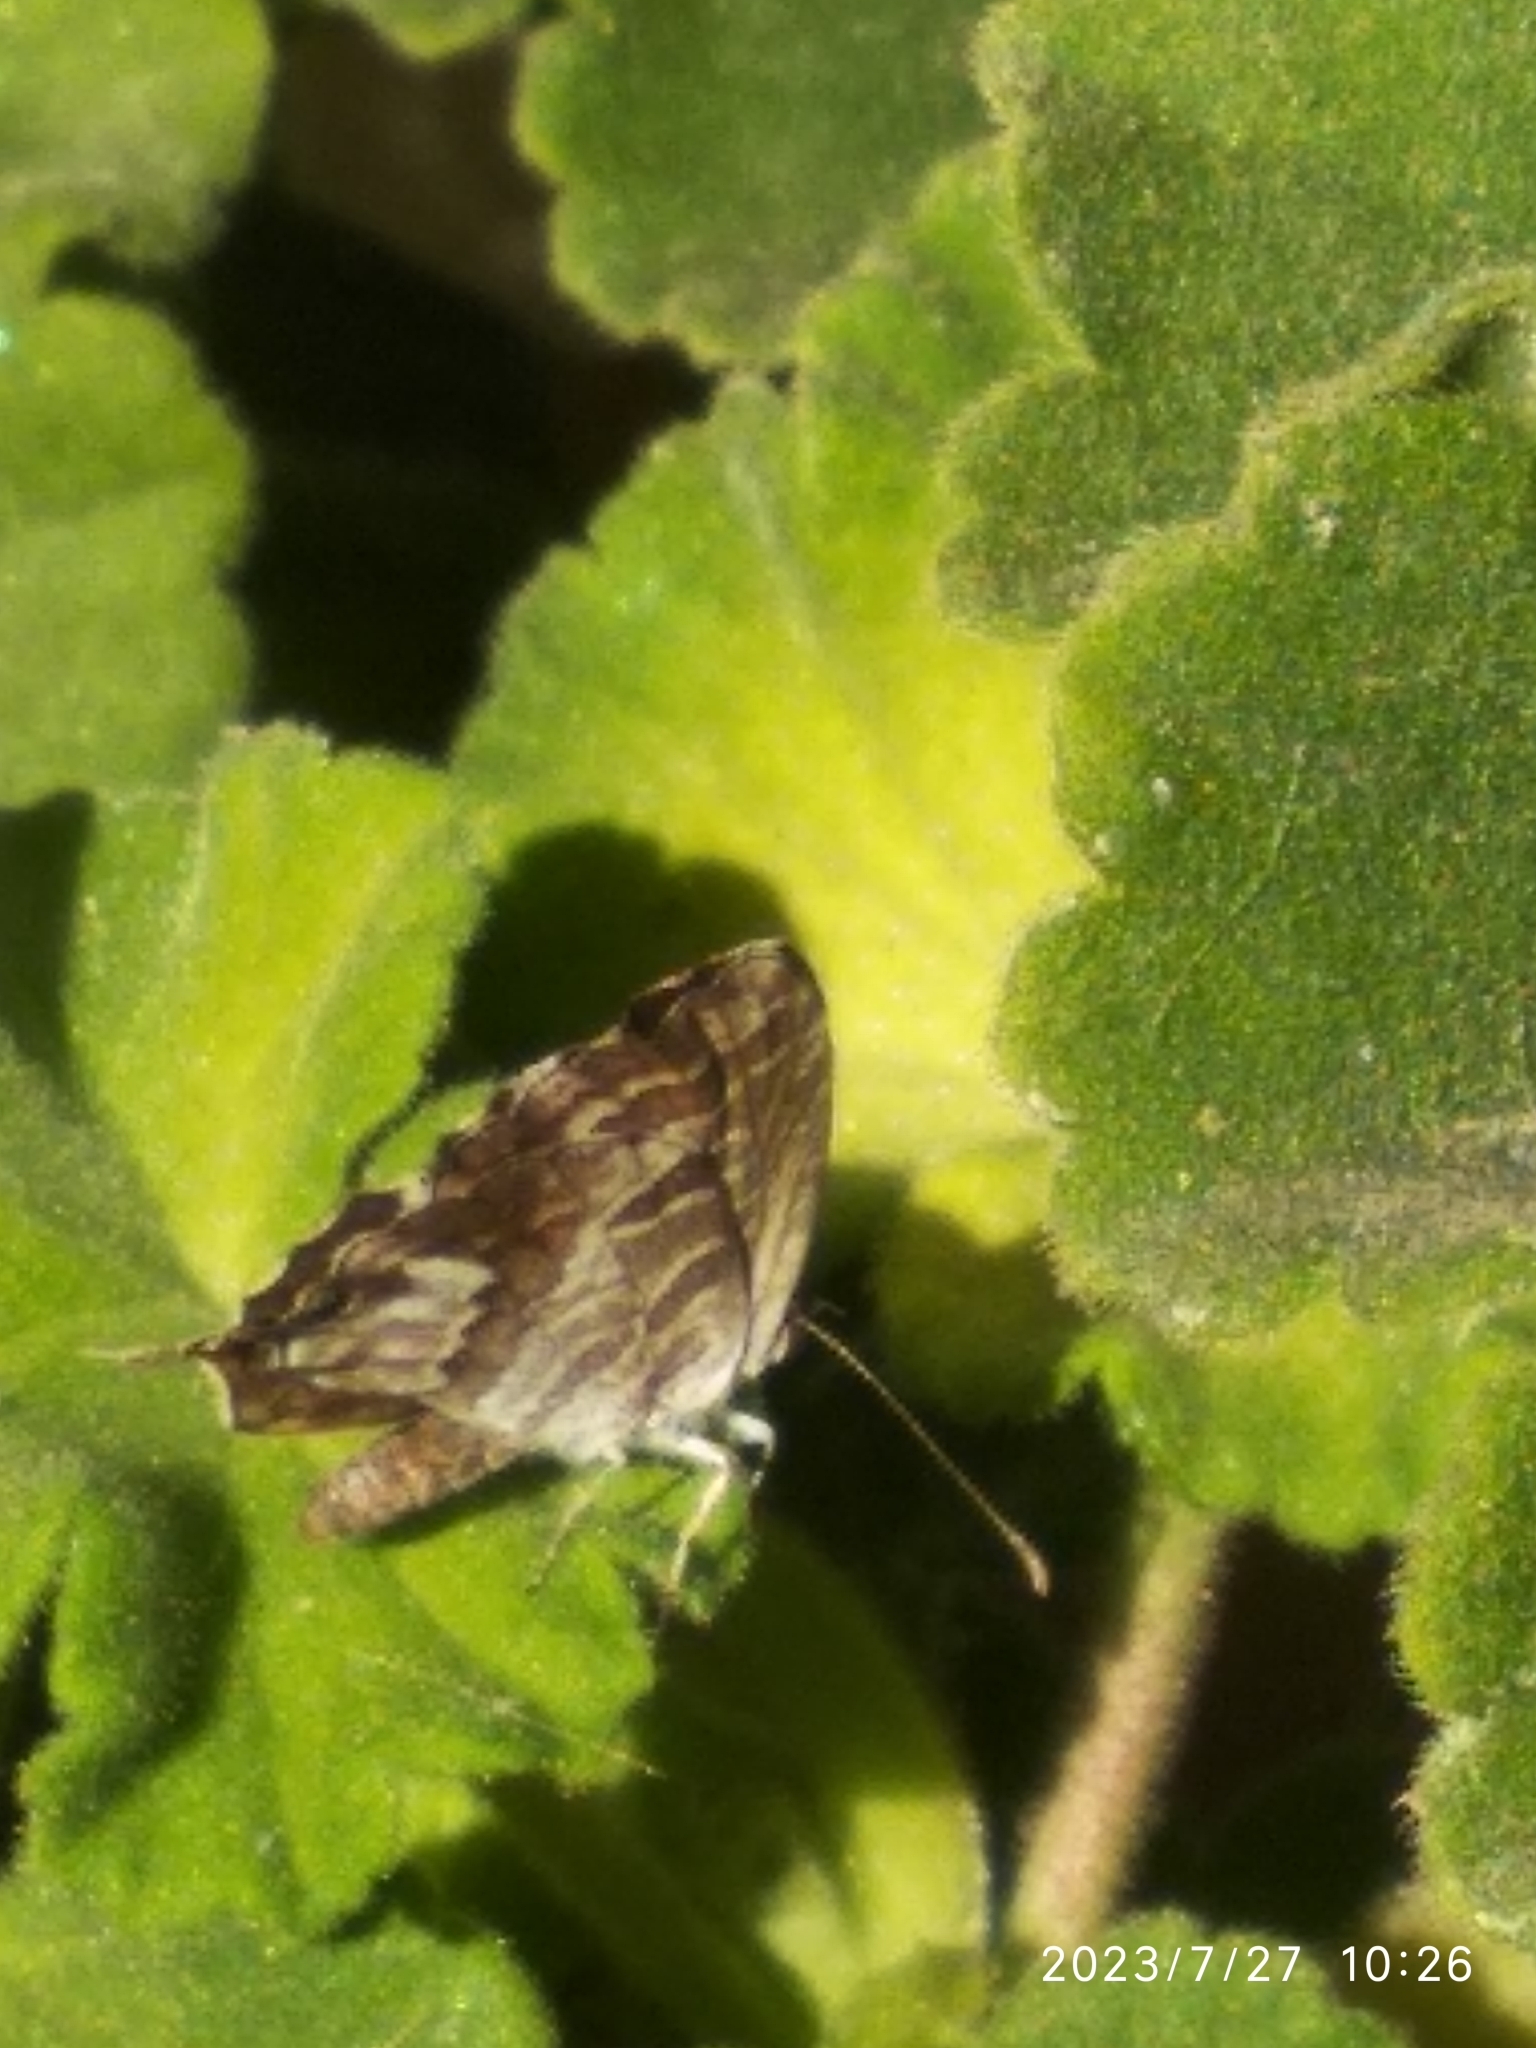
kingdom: Animalia
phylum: Arthropoda
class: Insecta
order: Lepidoptera
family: Lycaenidae
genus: Cacyreus
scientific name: Cacyreus marshalli
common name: Geranium bronze
